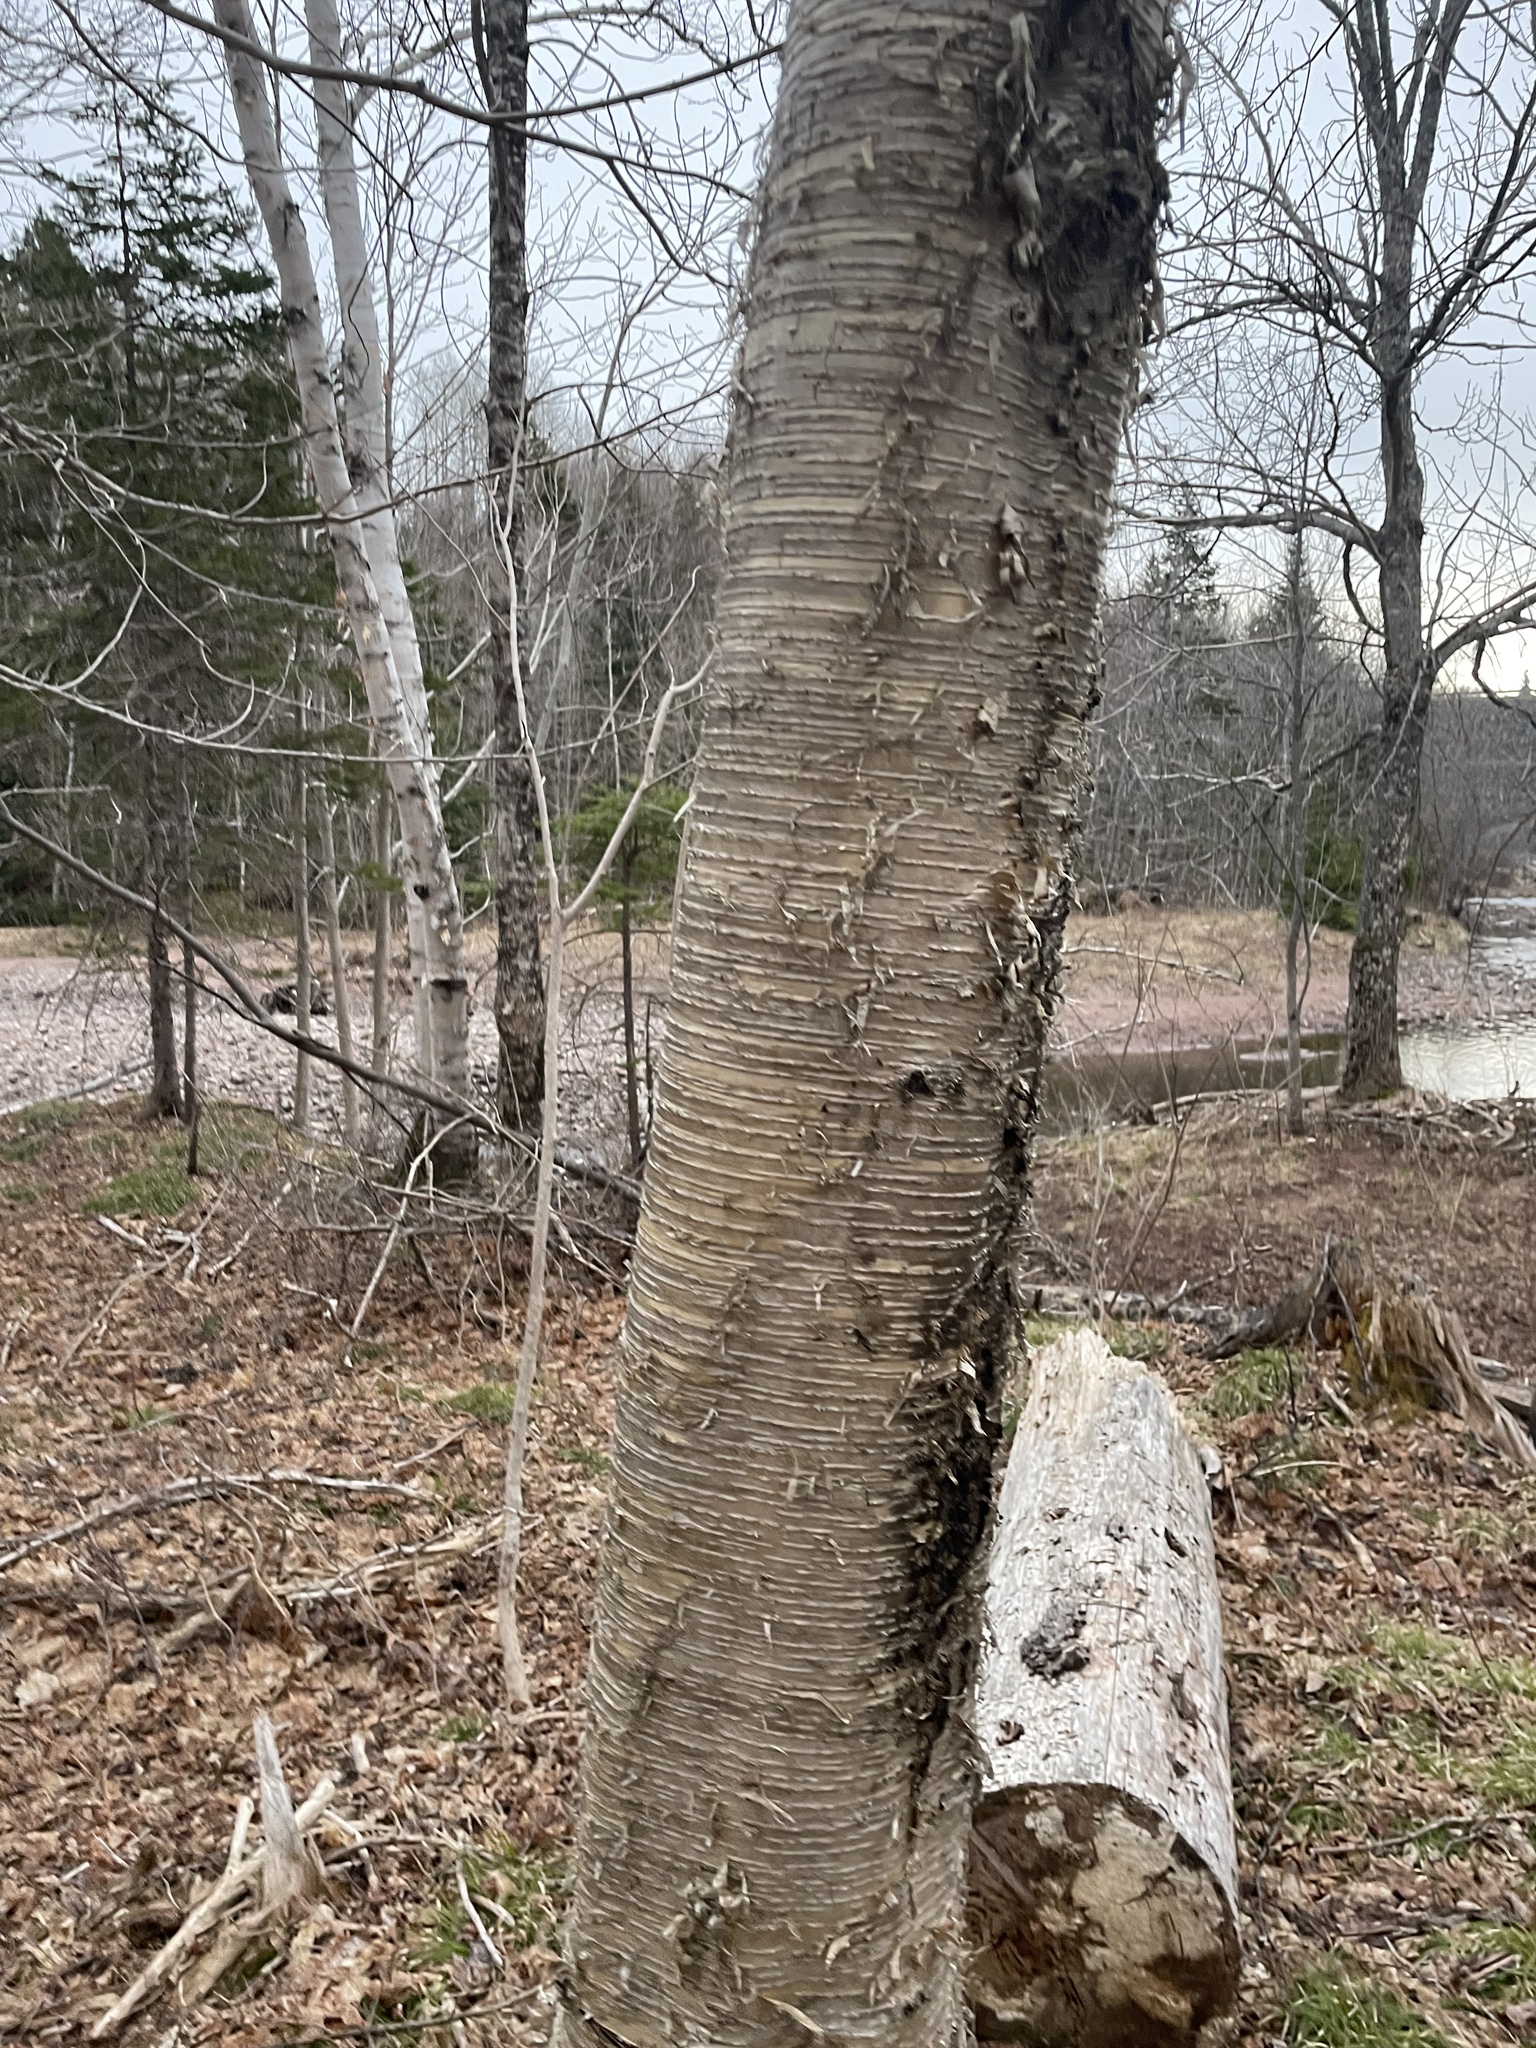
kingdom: Plantae
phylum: Tracheophyta
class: Magnoliopsida
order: Fagales
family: Betulaceae
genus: Betula
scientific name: Betula alleghaniensis
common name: Yellow birch
